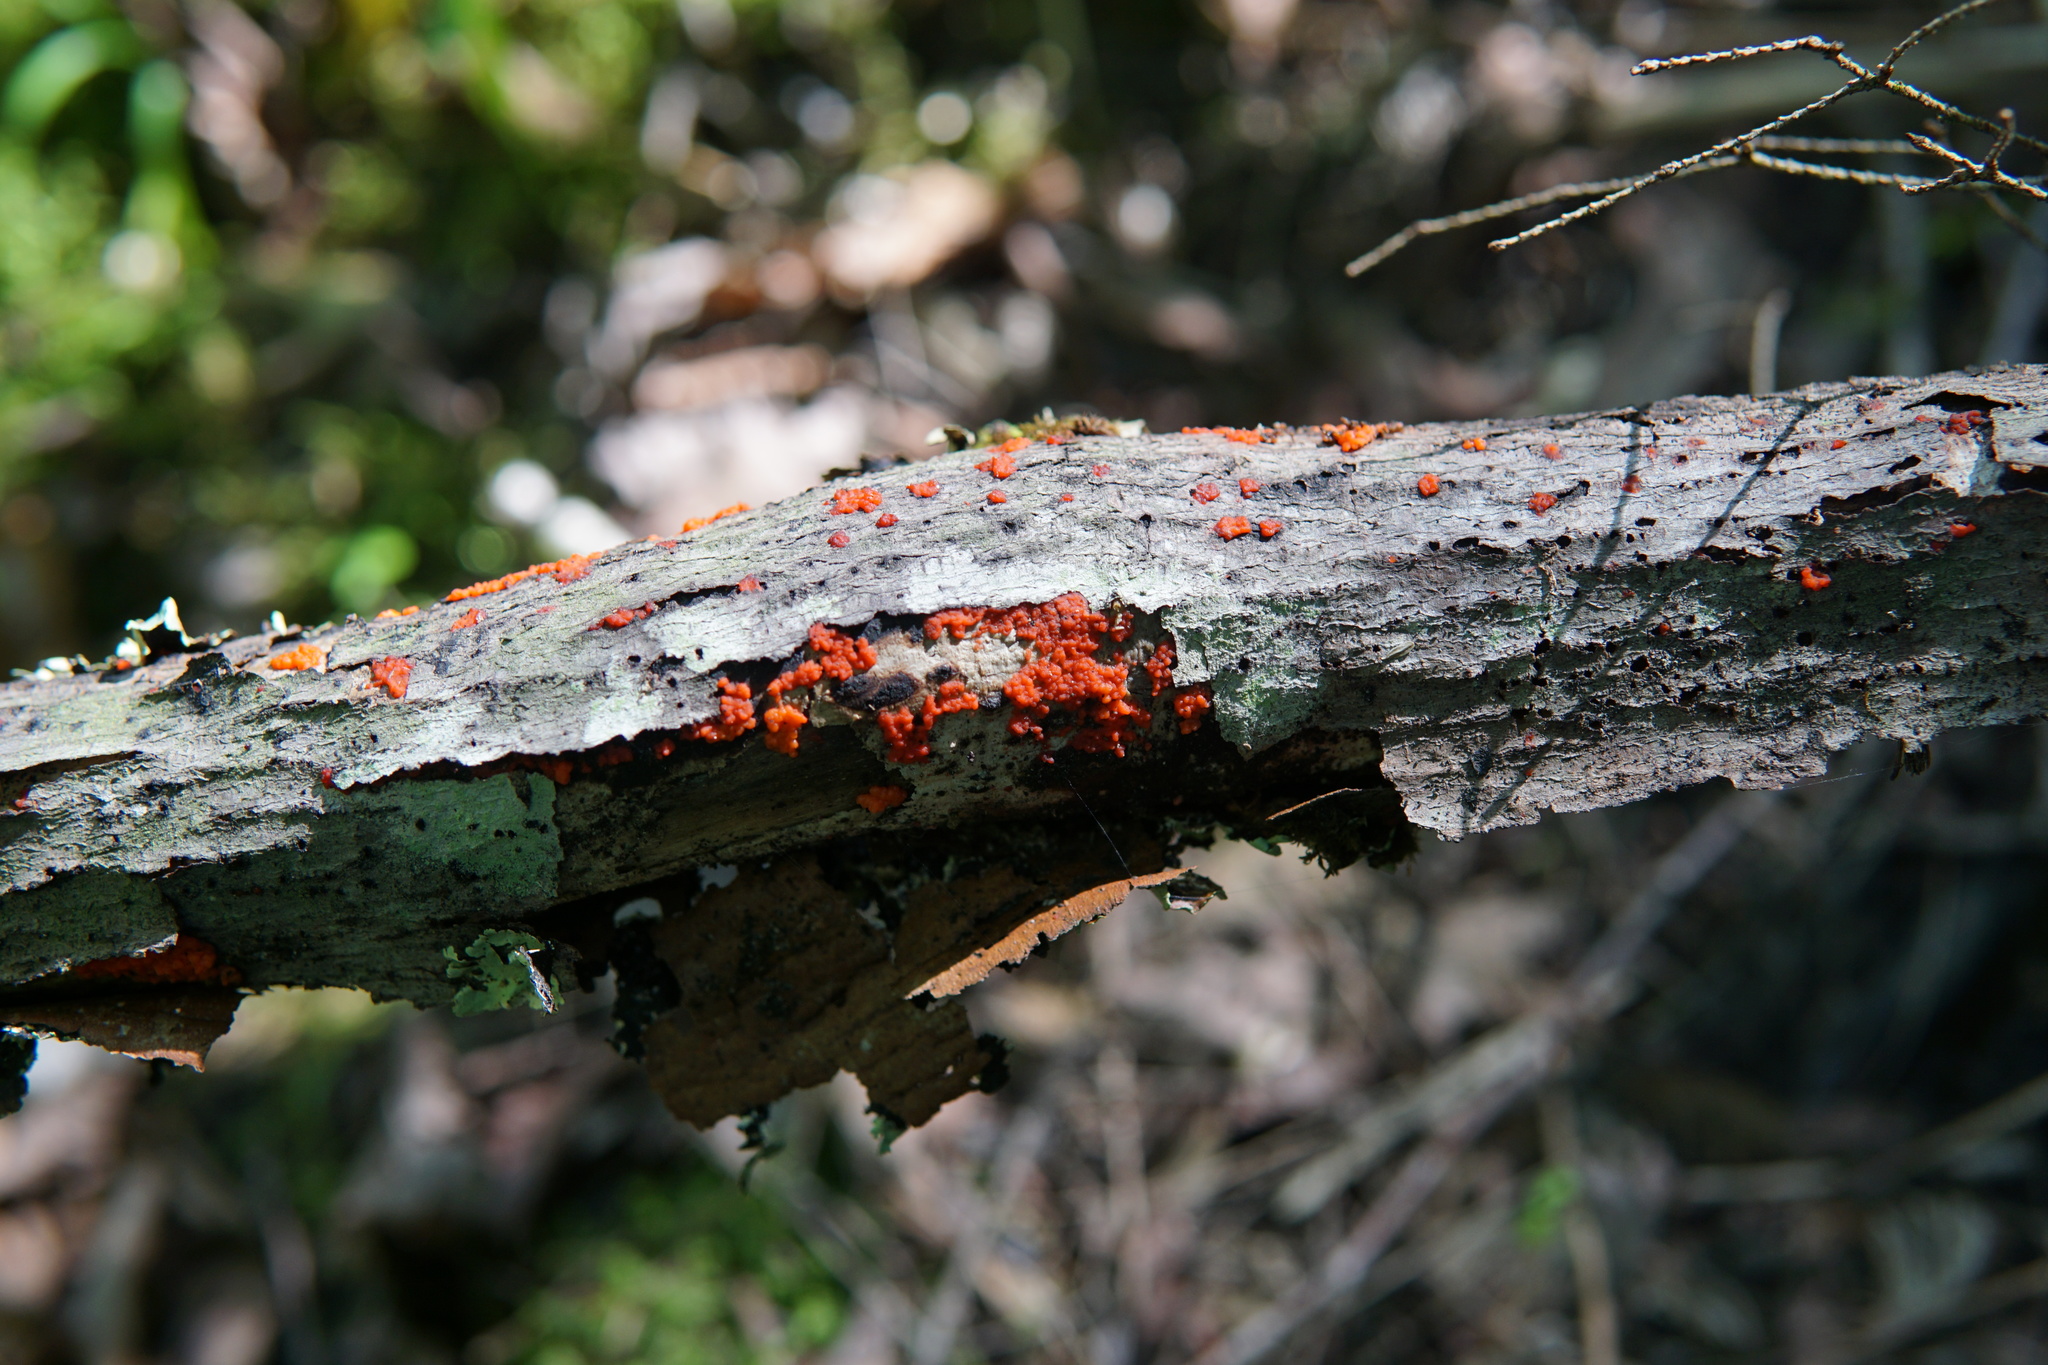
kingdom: Fungi
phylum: Basidiomycota
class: Agaricomycetes
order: Cantharellales
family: Tulasnellaceae
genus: Tulasnella
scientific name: Tulasnella aurantiaca
